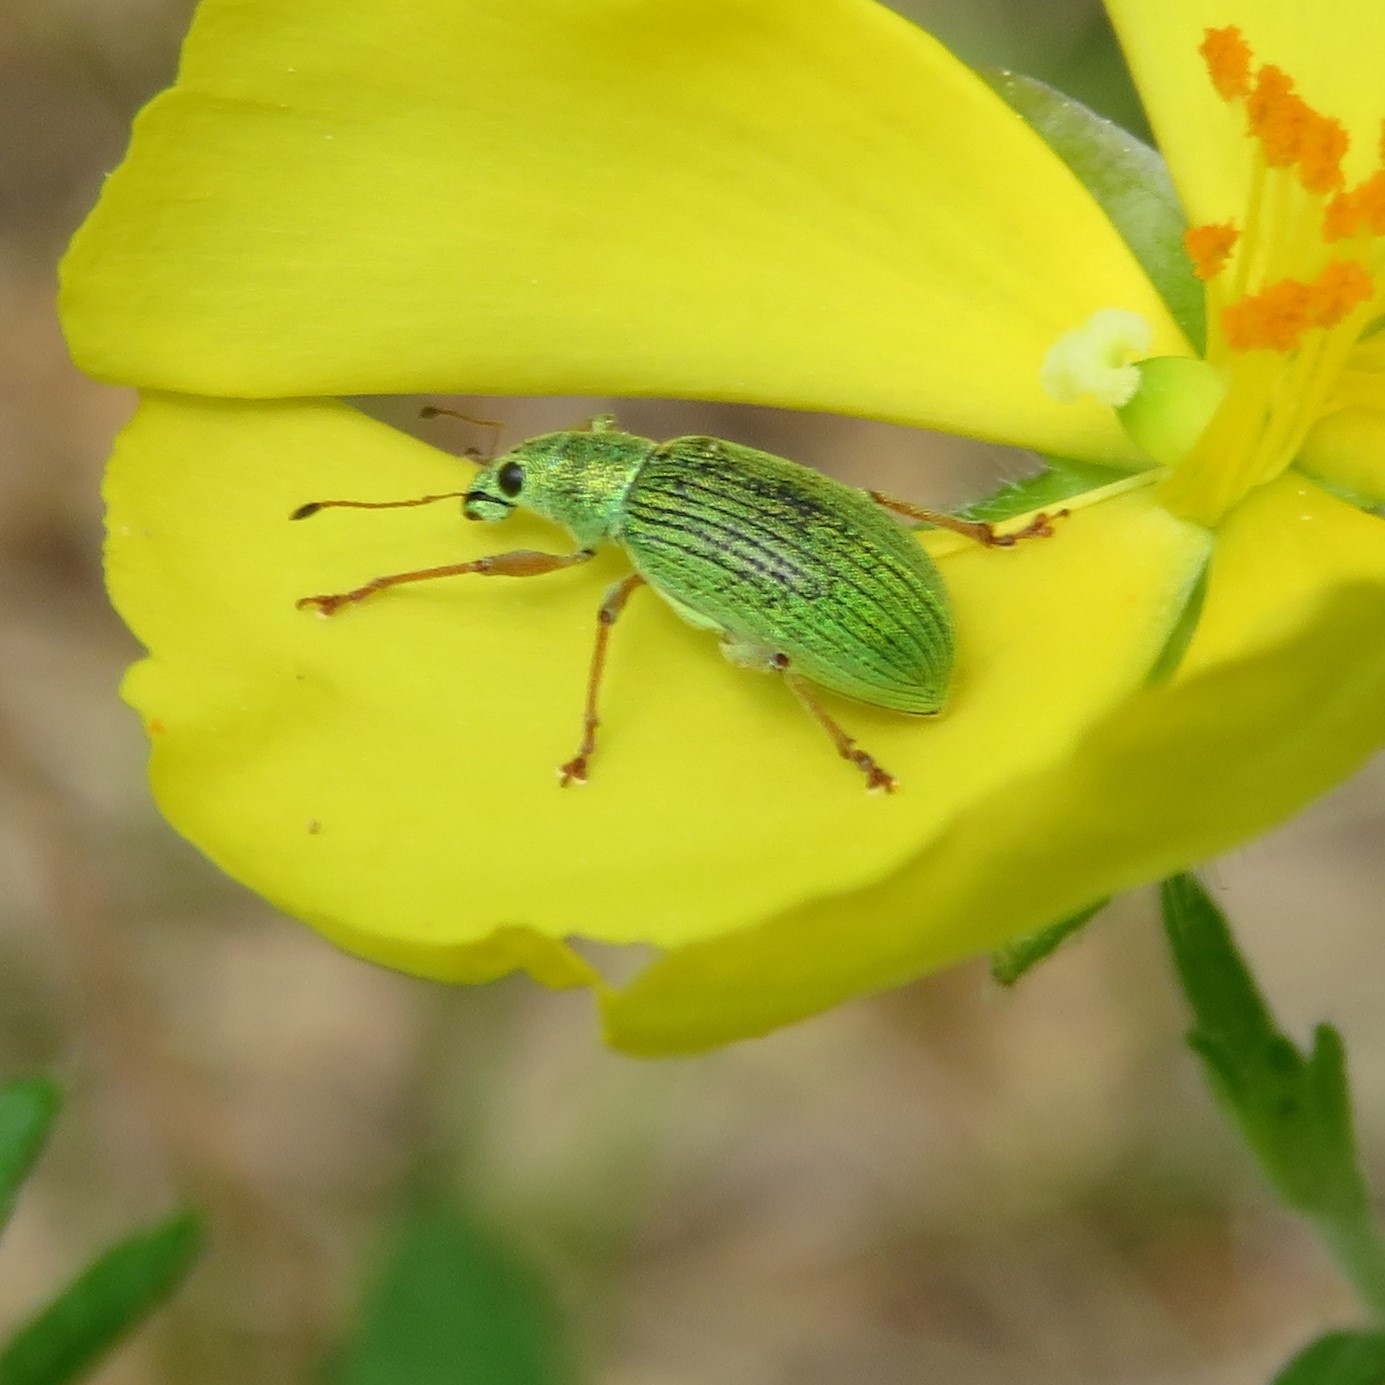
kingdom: Animalia
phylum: Arthropoda
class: Insecta
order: Coleoptera
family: Curculionidae
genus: Polydrusus
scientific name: Polydrusus formosus
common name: Weevil
